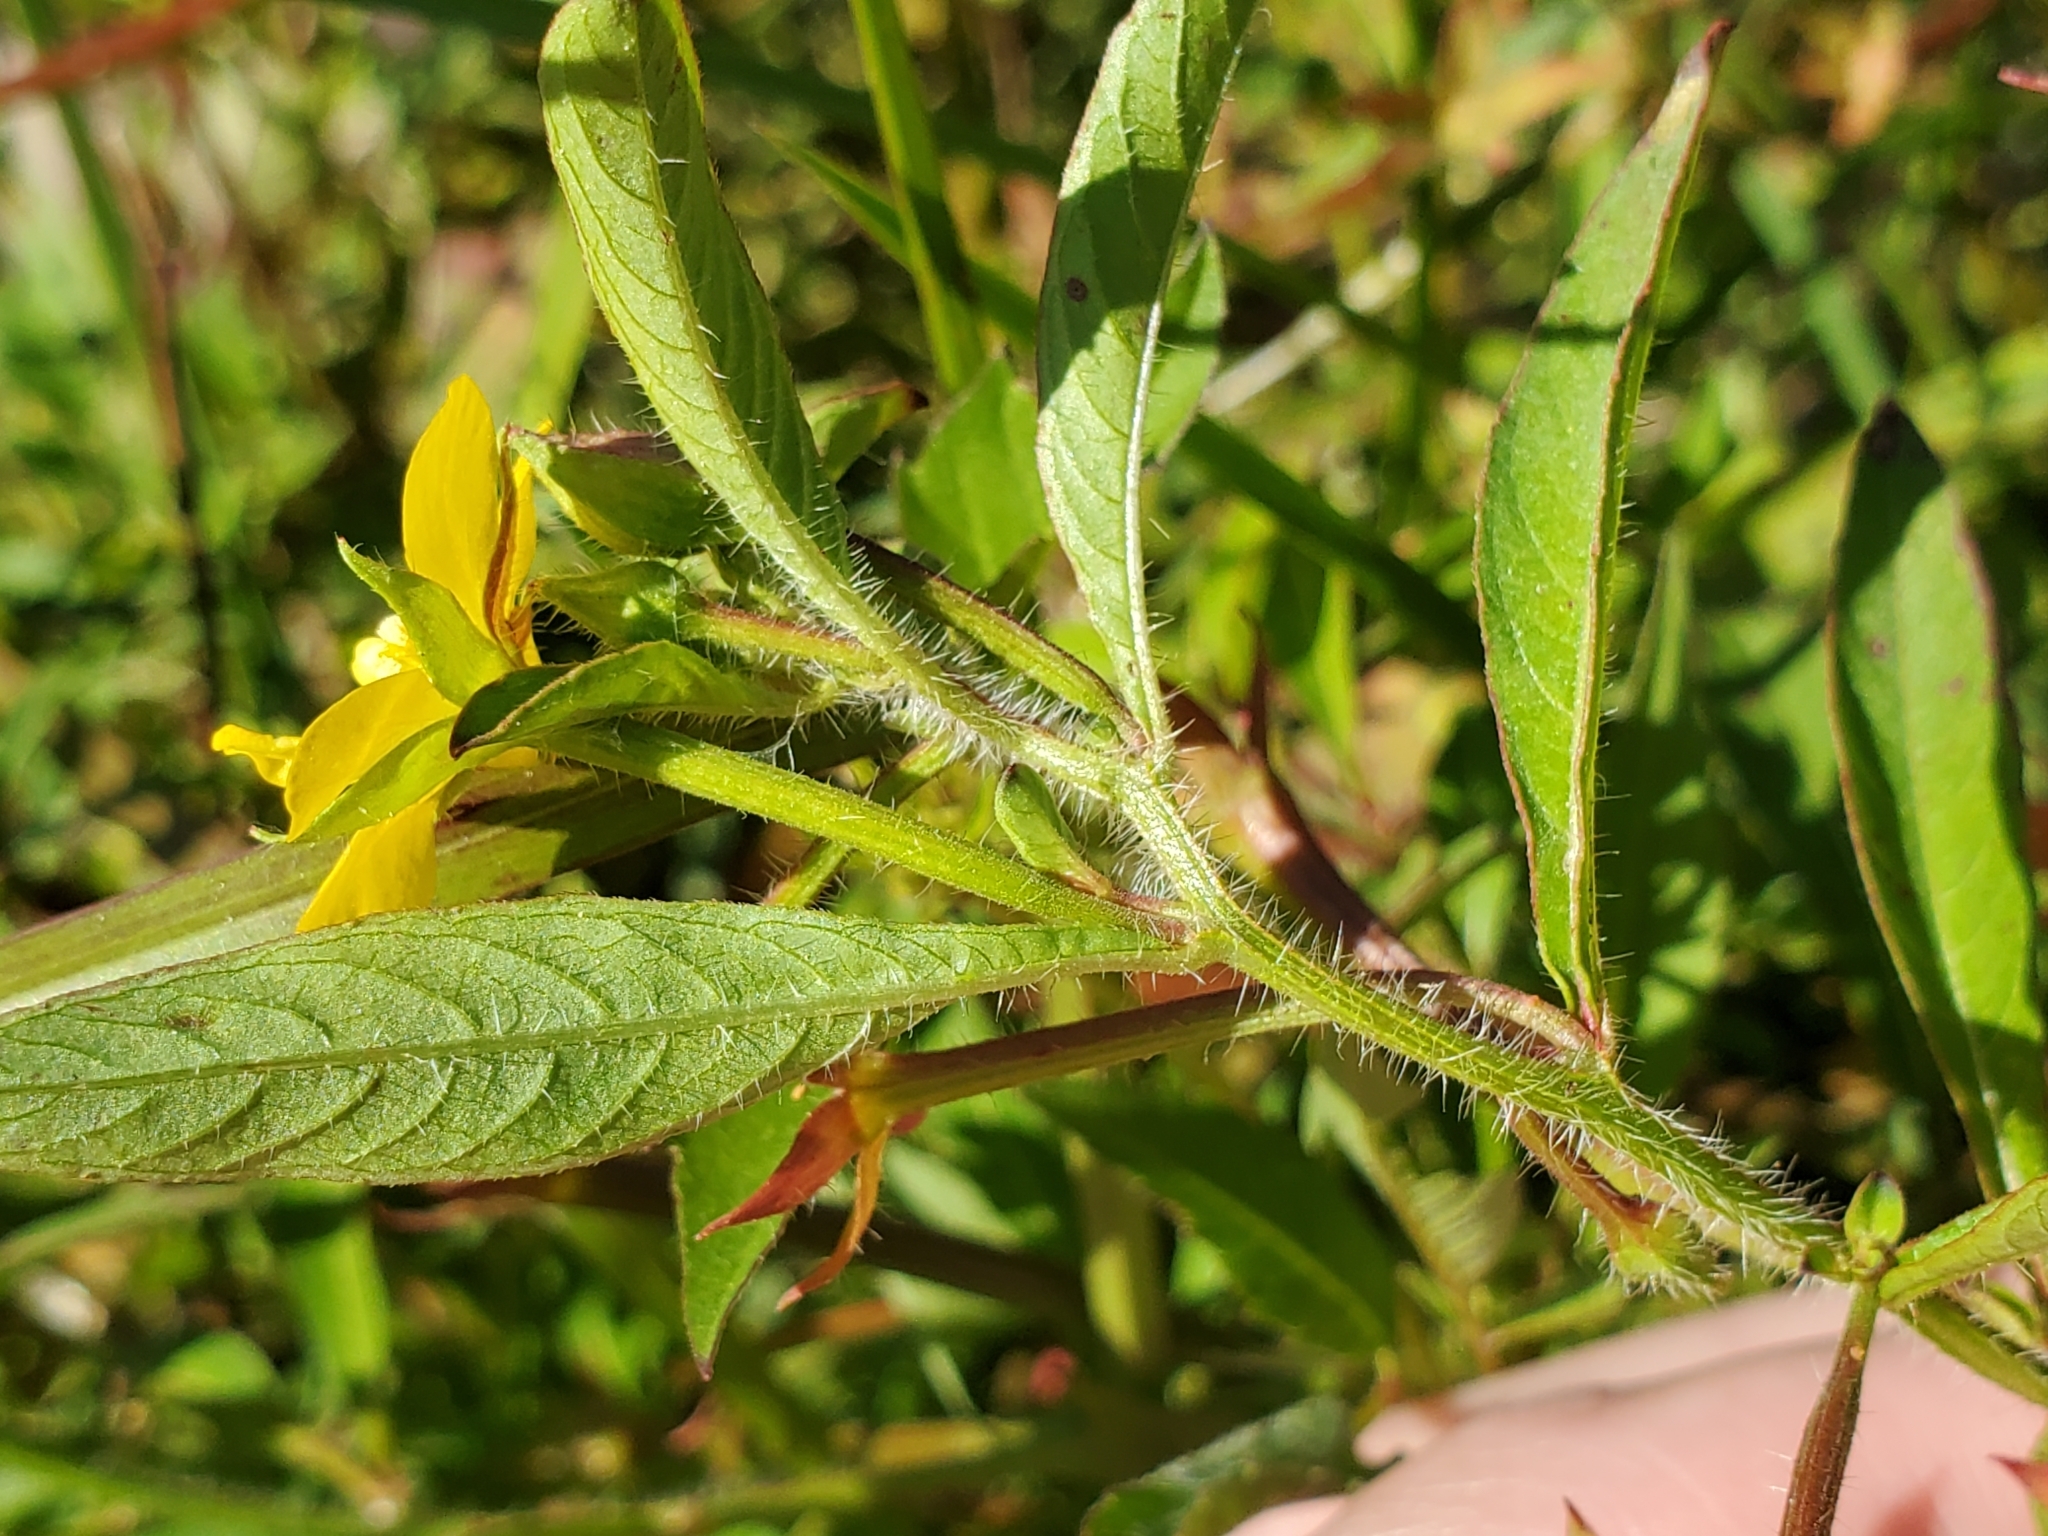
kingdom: Plantae
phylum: Tracheophyta
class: Magnoliopsida
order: Myrtales
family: Onagraceae
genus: Ludwigia
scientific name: Ludwigia leptocarpa
